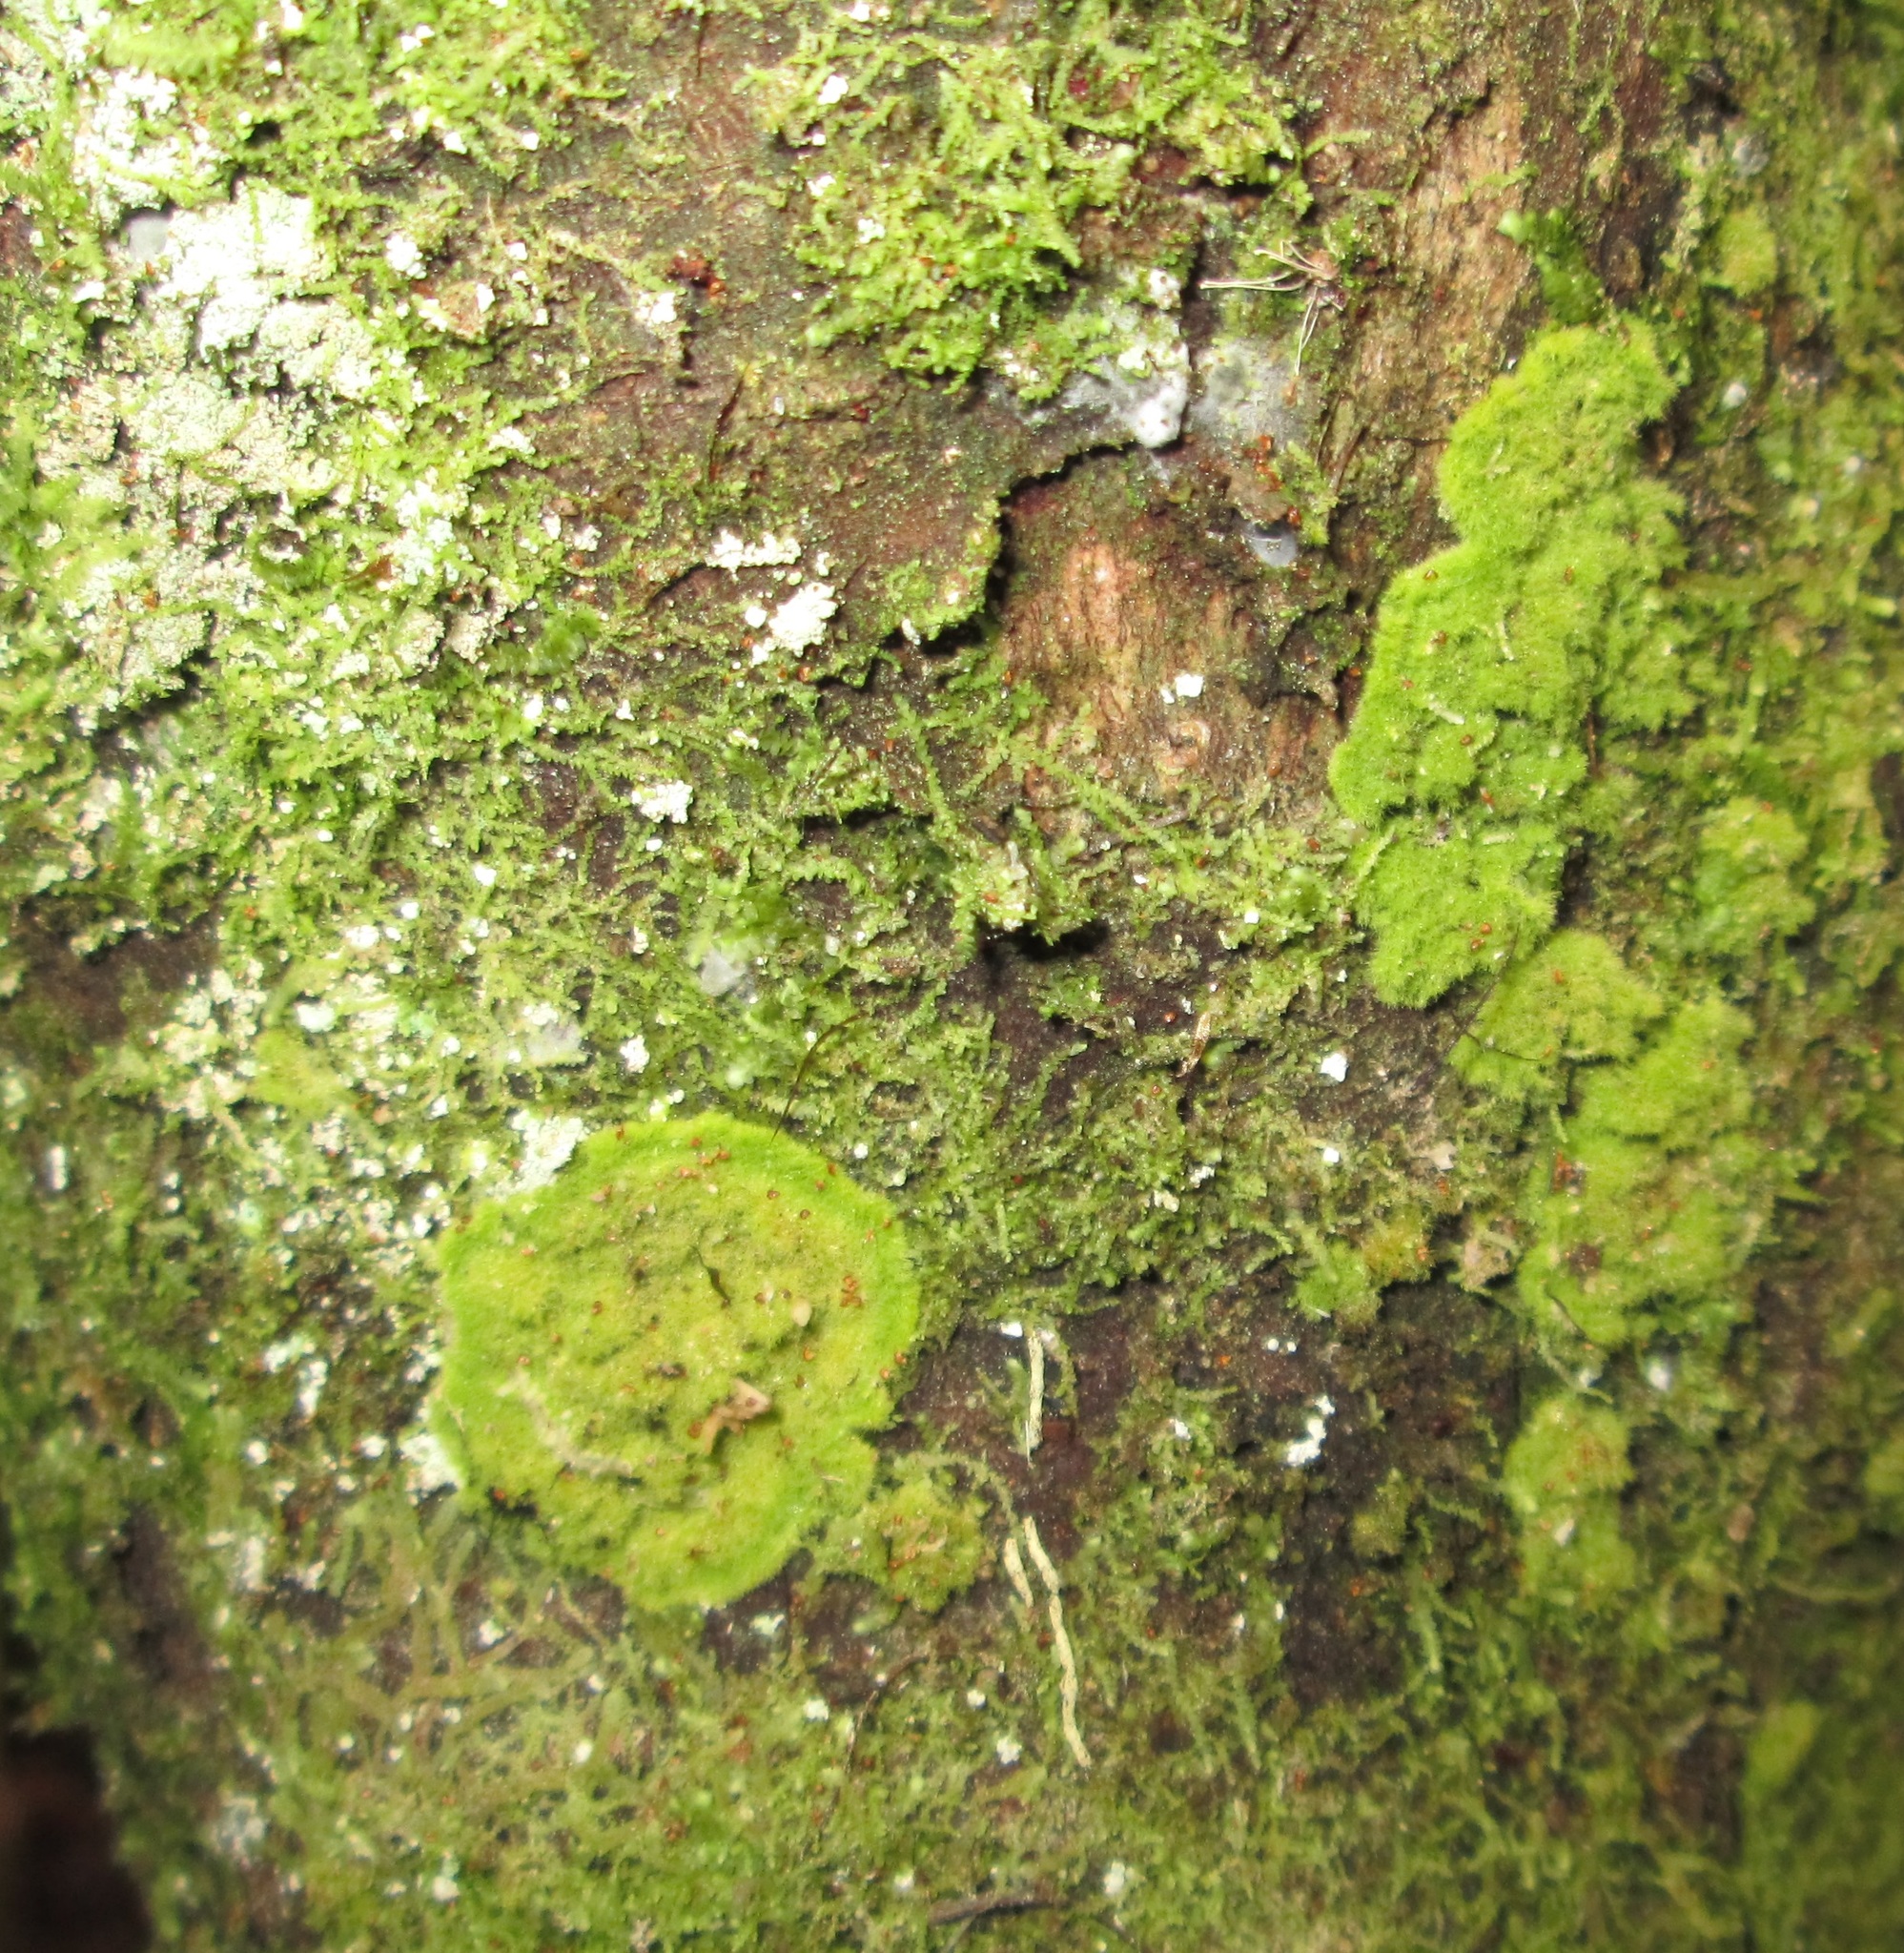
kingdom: Fungi
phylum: Ascomycota
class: Lecanoromycetes
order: Ostropales
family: Coenogoniaceae
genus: Coenogonium
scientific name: Coenogonium implexum
